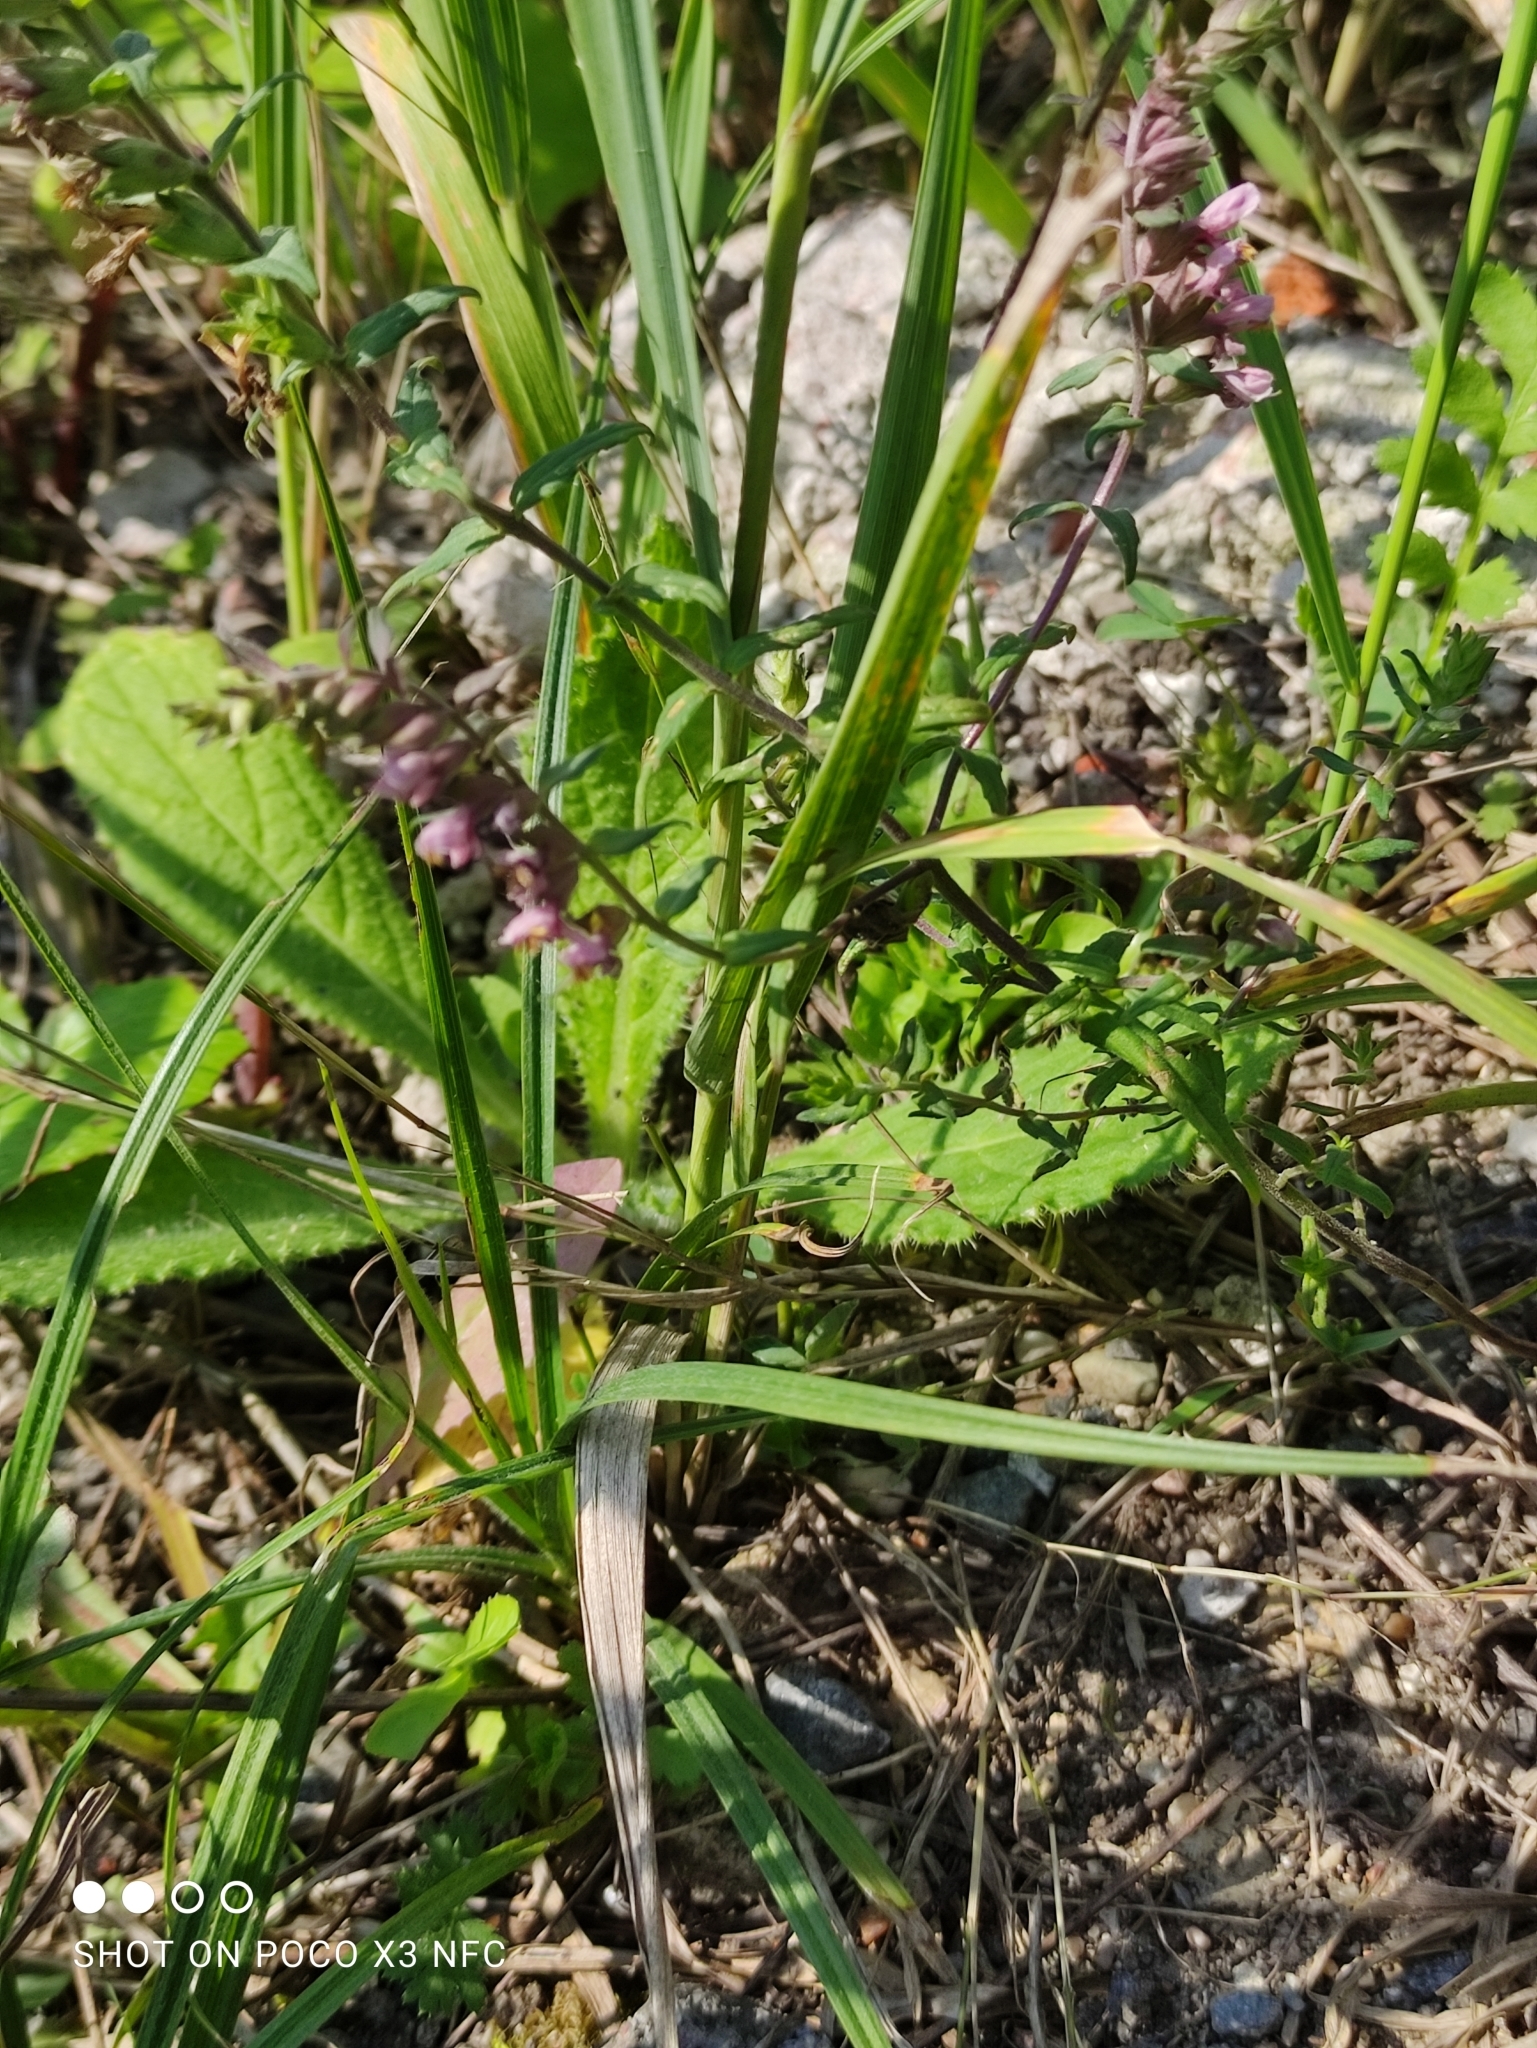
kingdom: Plantae
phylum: Tracheophyta
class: Magnoliopsida
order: Lamiales
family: Orobanchaceae
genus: Odontites
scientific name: Odontites vulgaris
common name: Broomrape
